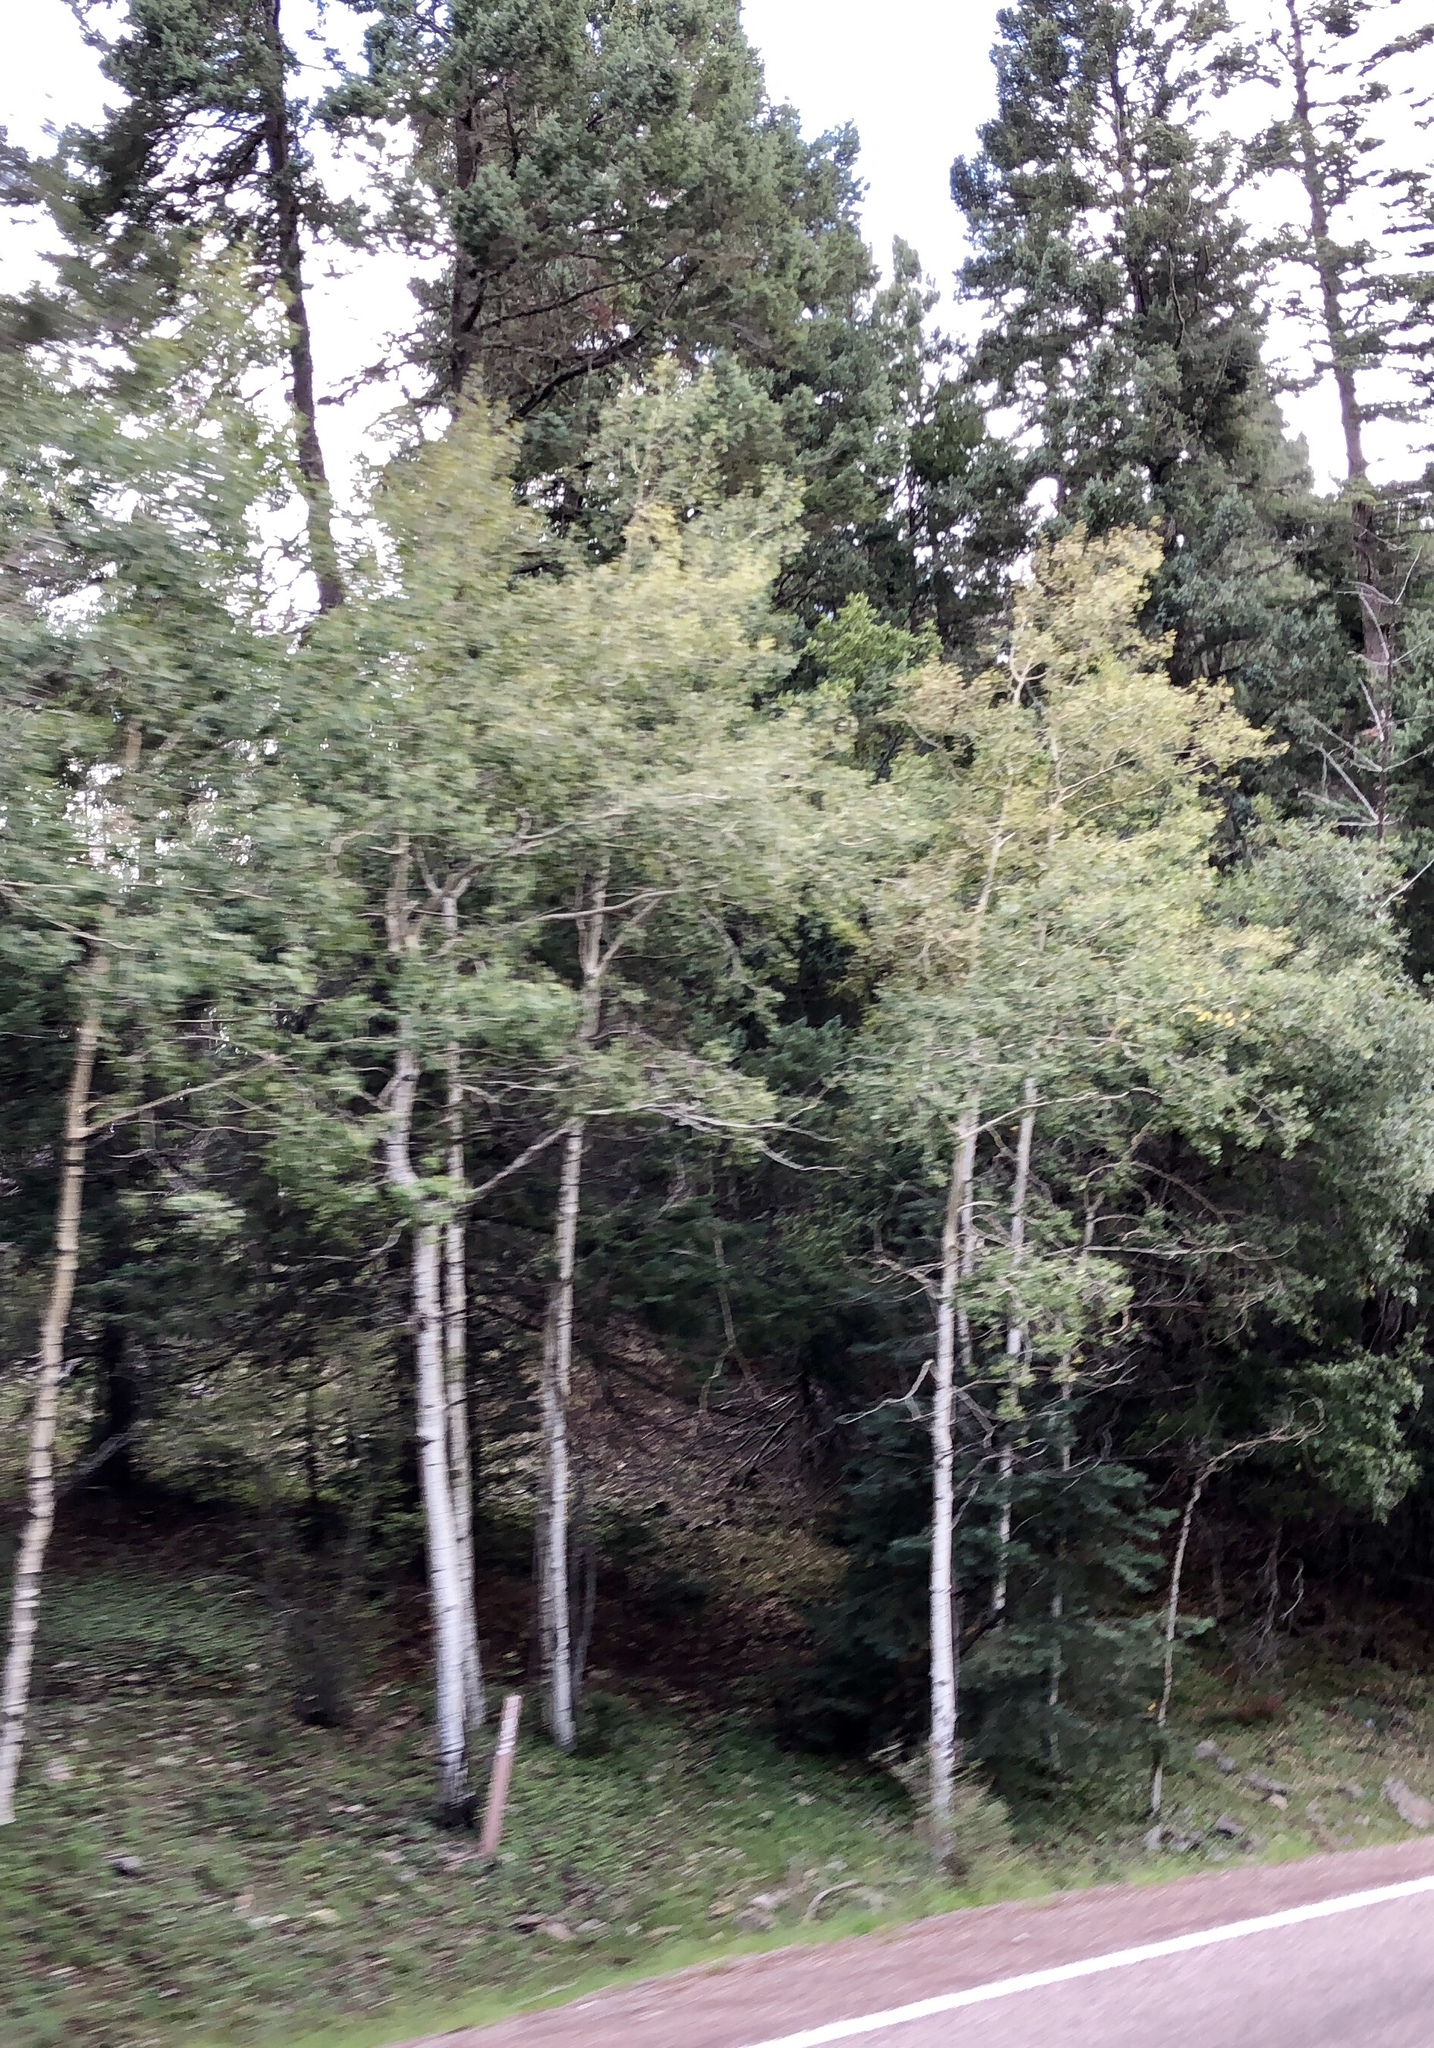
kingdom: Plantae
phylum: Tracheophyta
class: Magnoliopsida
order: Malpighiales
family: Salicaceae
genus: Populus
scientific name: Populus tremuloides
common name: Quaking aspen
